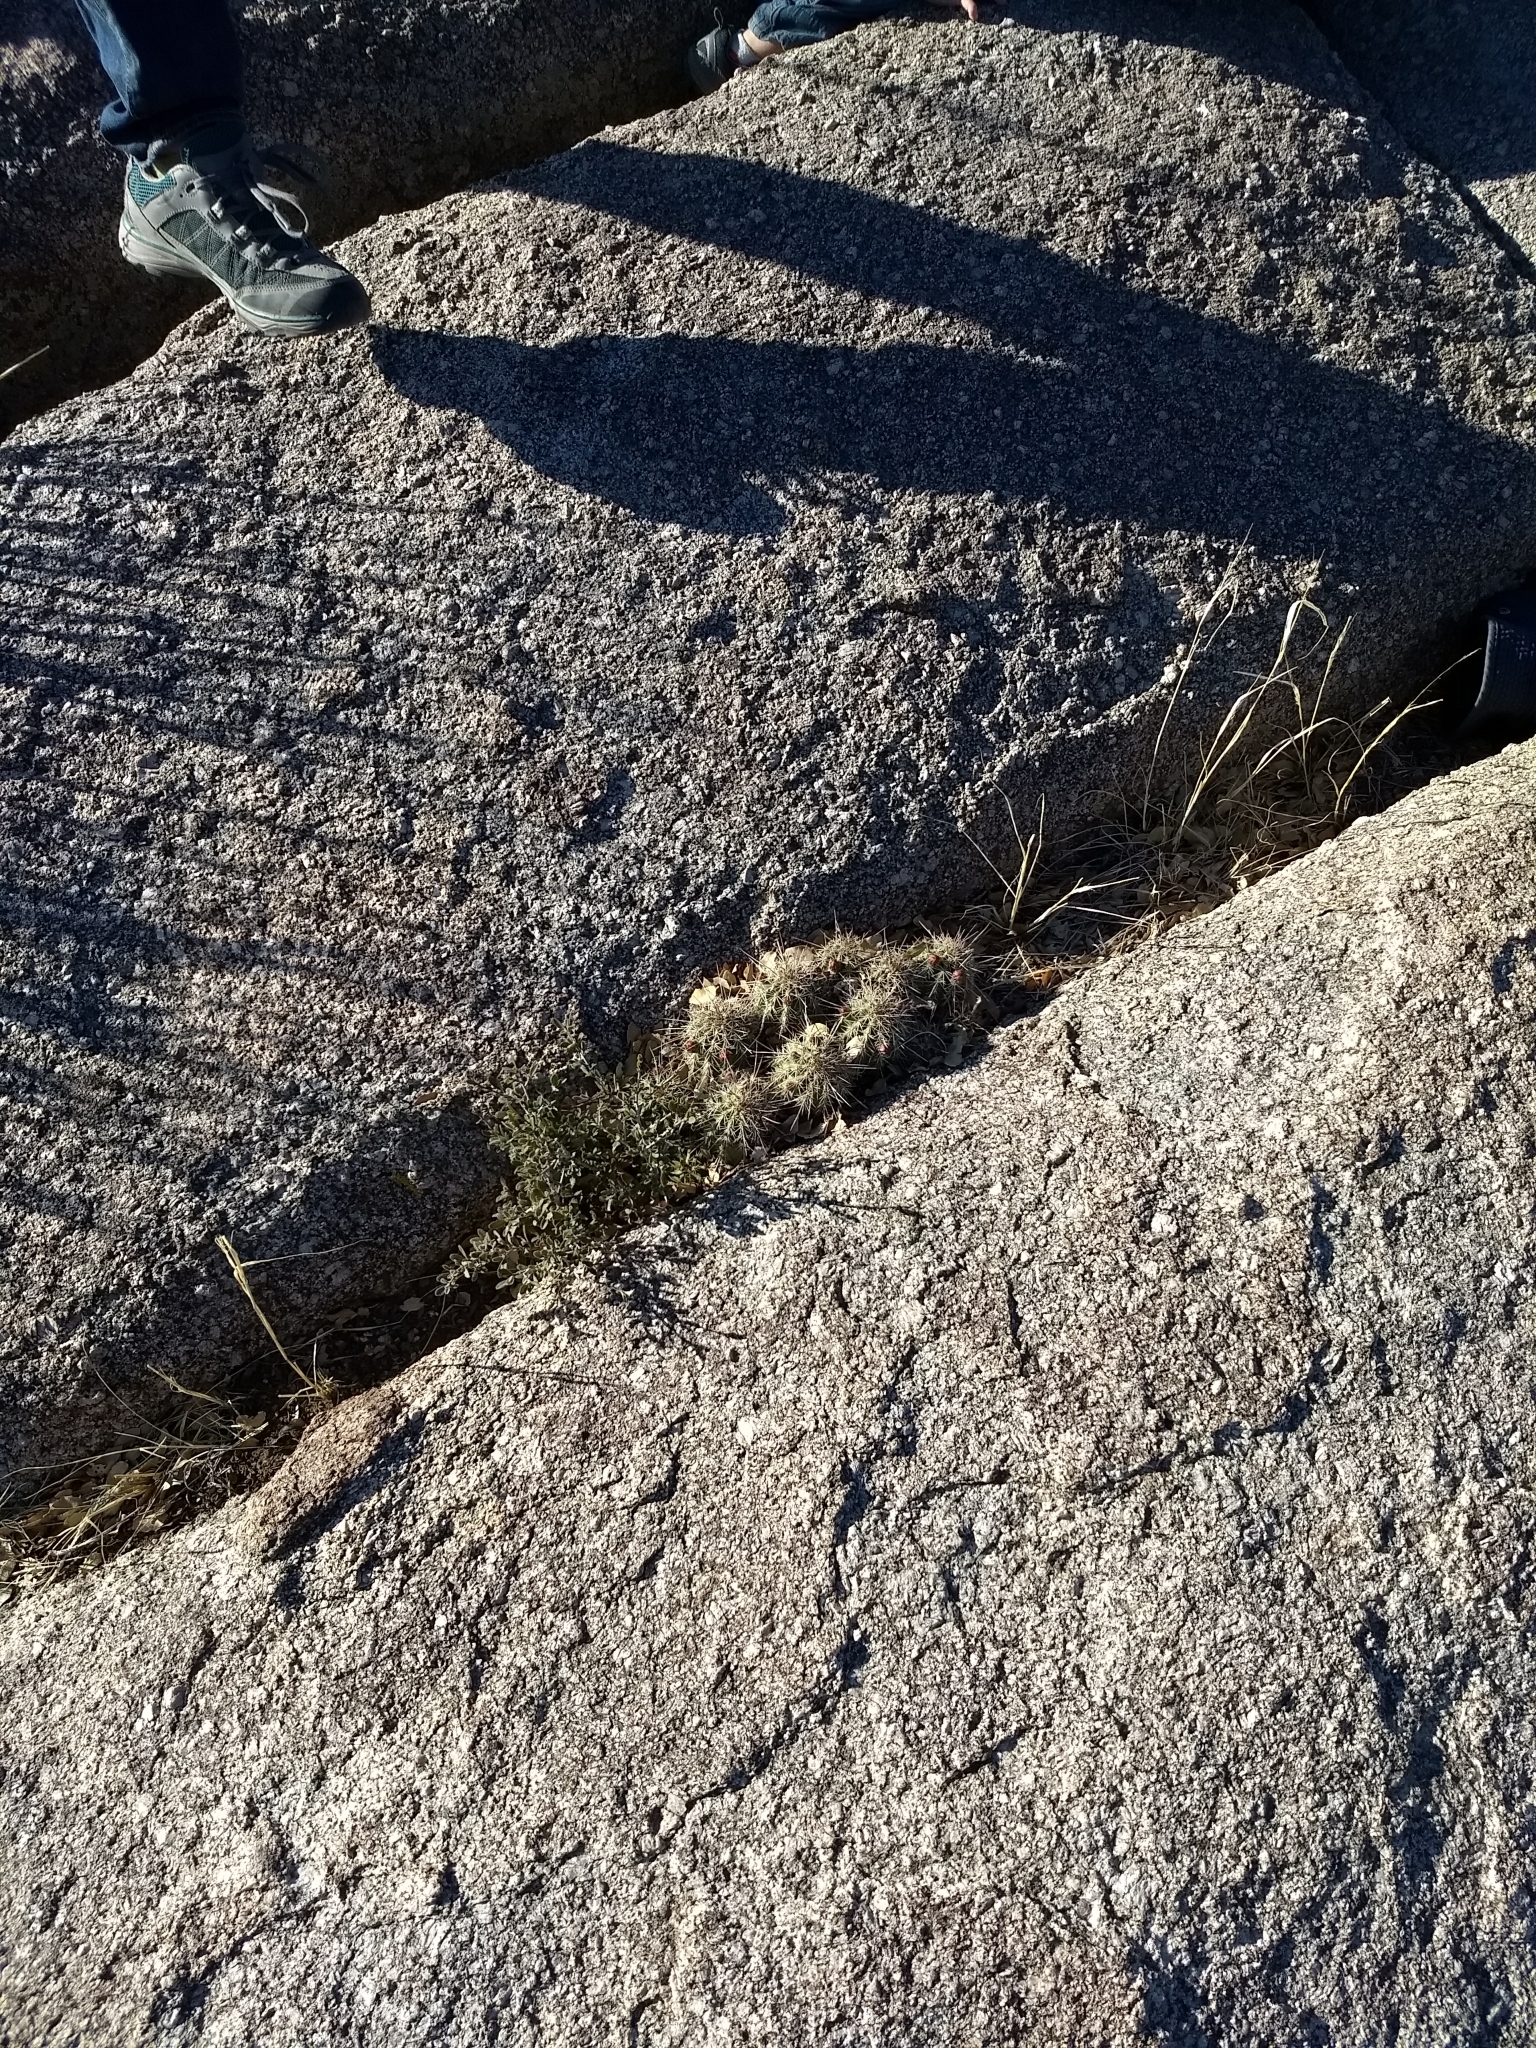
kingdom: Plantae
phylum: Tracheophyta
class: Magnoliopsida
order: Caryophyllales
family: Cactaceae
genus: Echinocereus
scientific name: Echinocereus coccineus
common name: Scarlet hedgehog cactus
